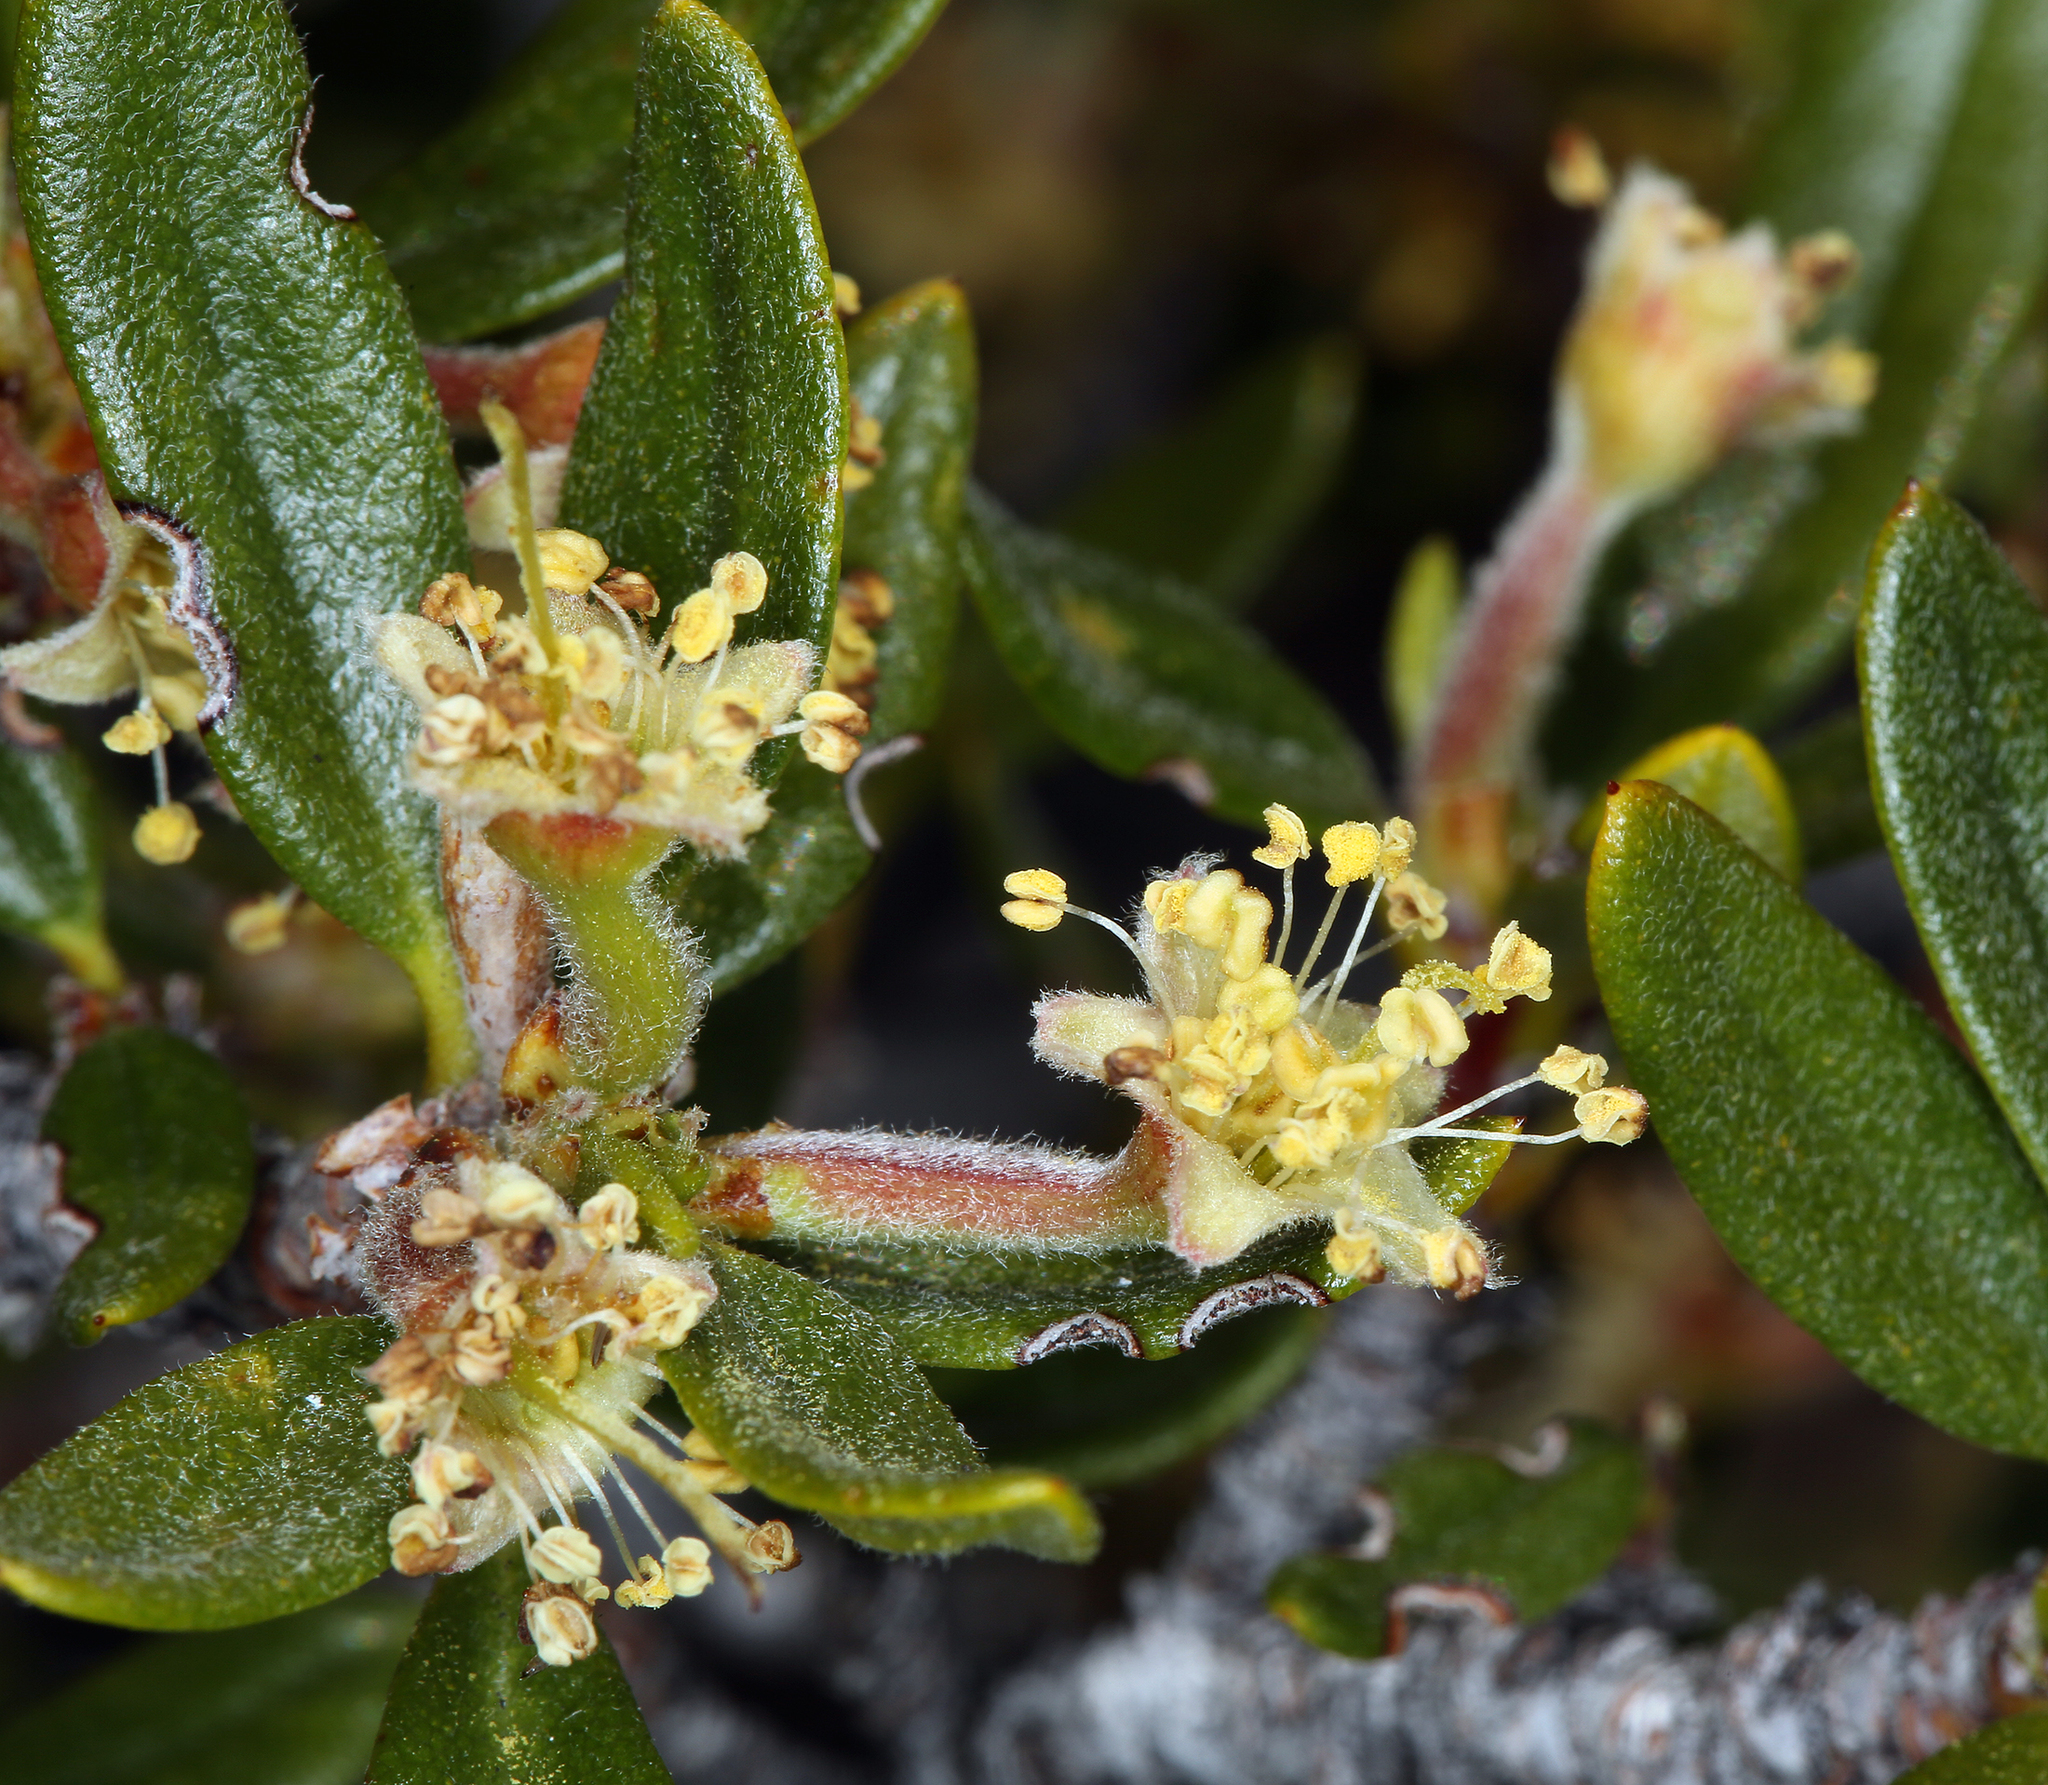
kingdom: Plantae
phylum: Tracheophyta
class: Magnoliopsida
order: Rosales
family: Rosaceae
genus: Cercocarpus
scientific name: Cercocarpus ledifolius
